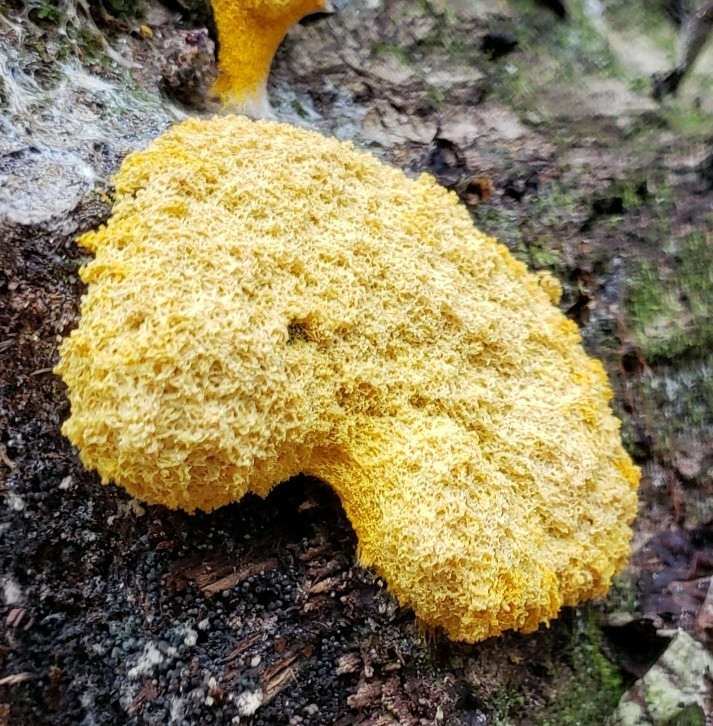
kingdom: Protozoa
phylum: Mycetozoa
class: Myxomycetes
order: Physarales
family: Physaraceae
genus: Fuligo
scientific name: Fuligo septica
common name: Dog vomit slime mold
